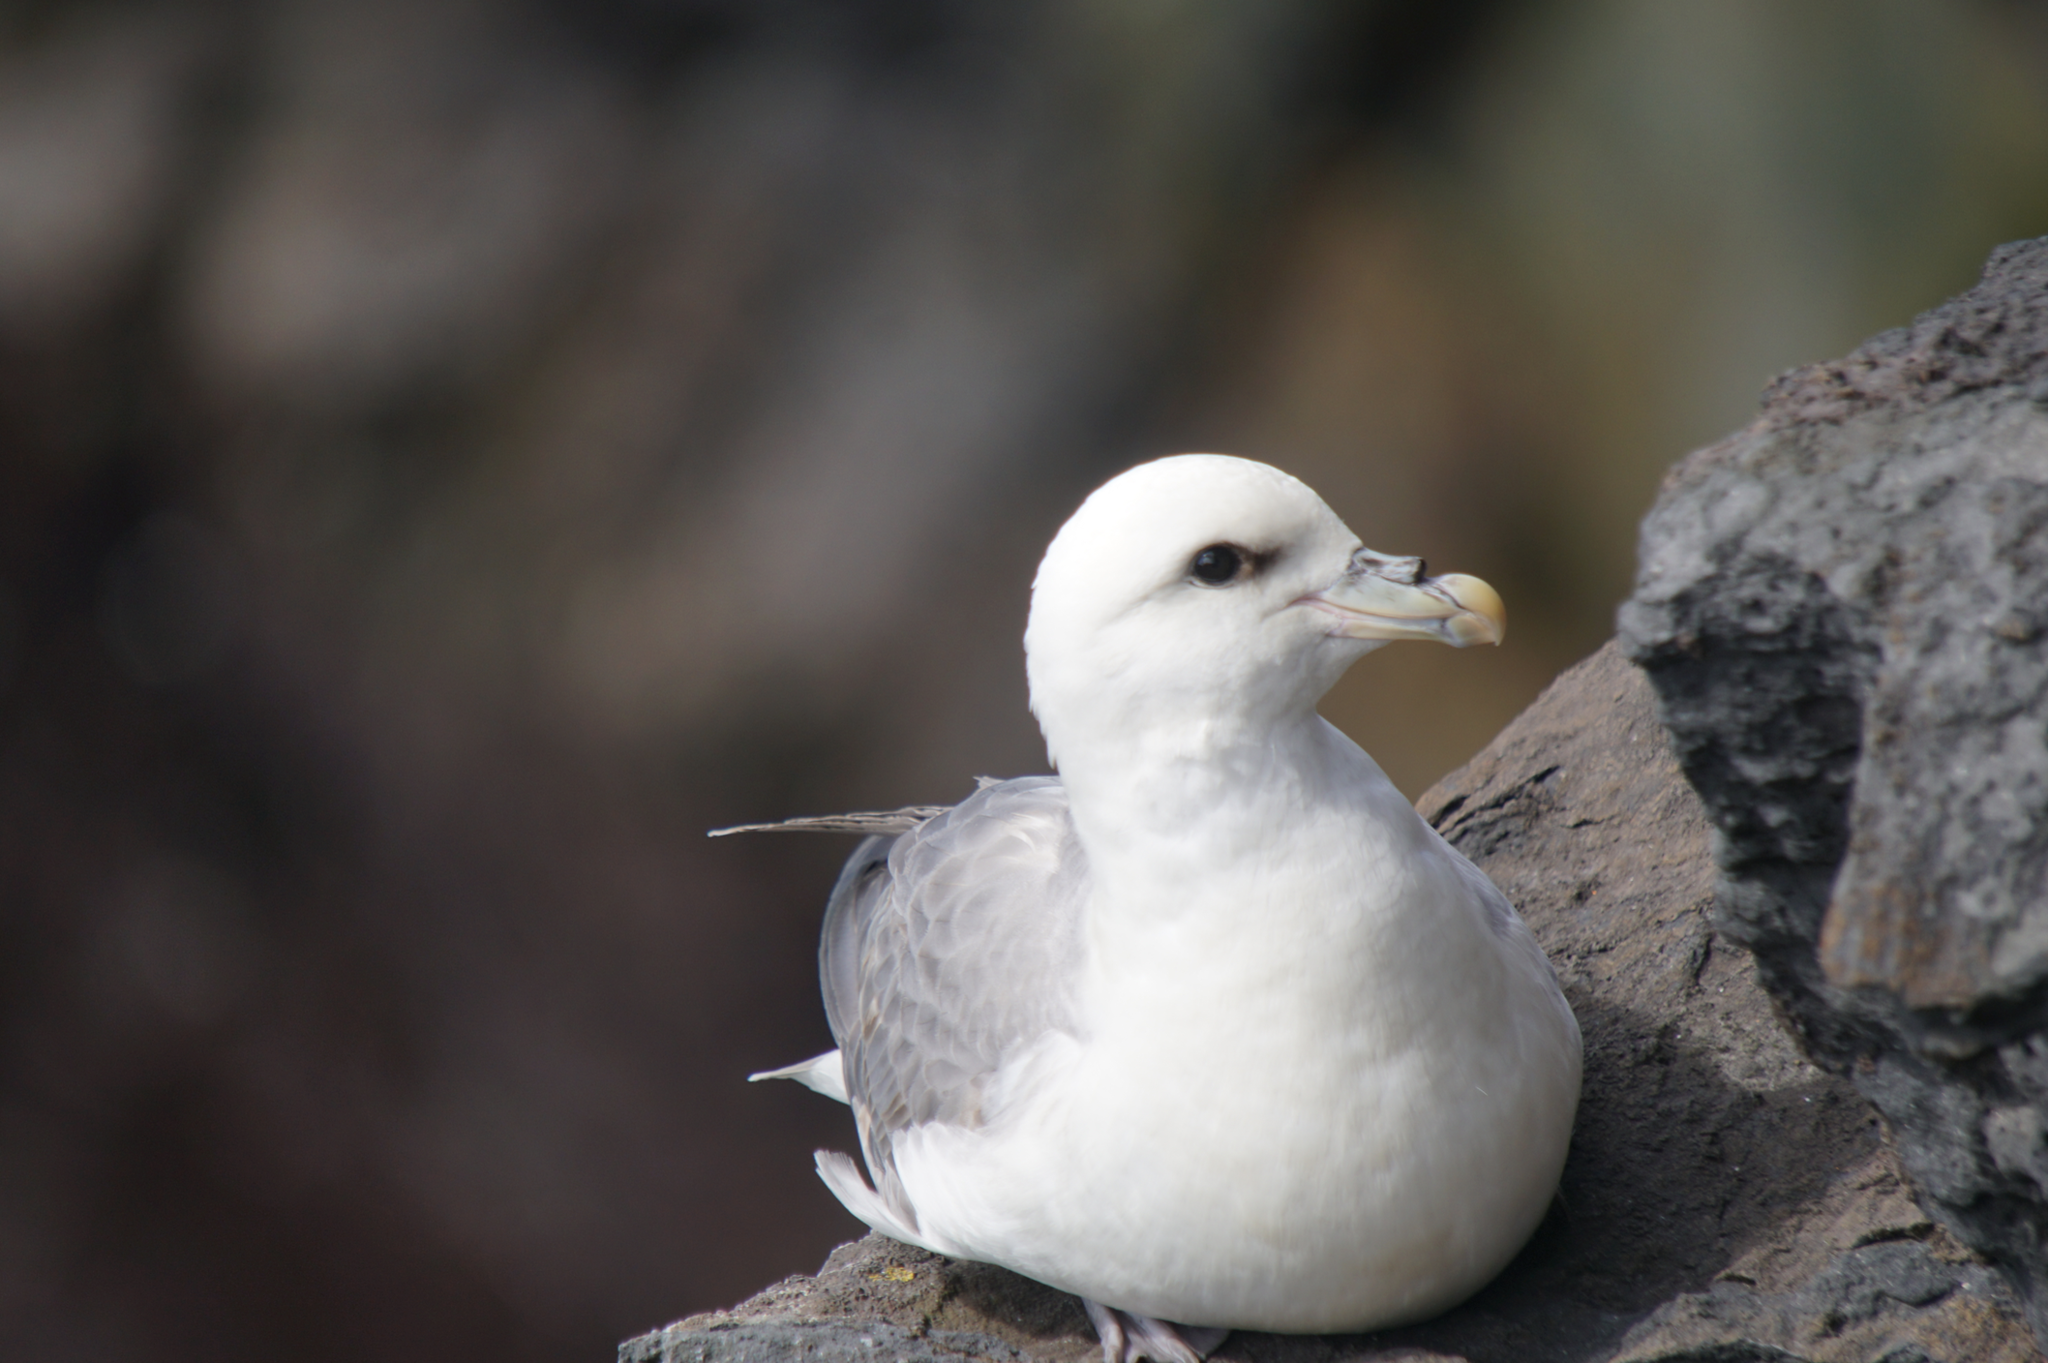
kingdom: Animalia
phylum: Chordata
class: Aves
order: Procellariiformes
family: Procellariidae
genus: Fulmarus
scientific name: Fulmarus glacialis
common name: Northern fulmar
